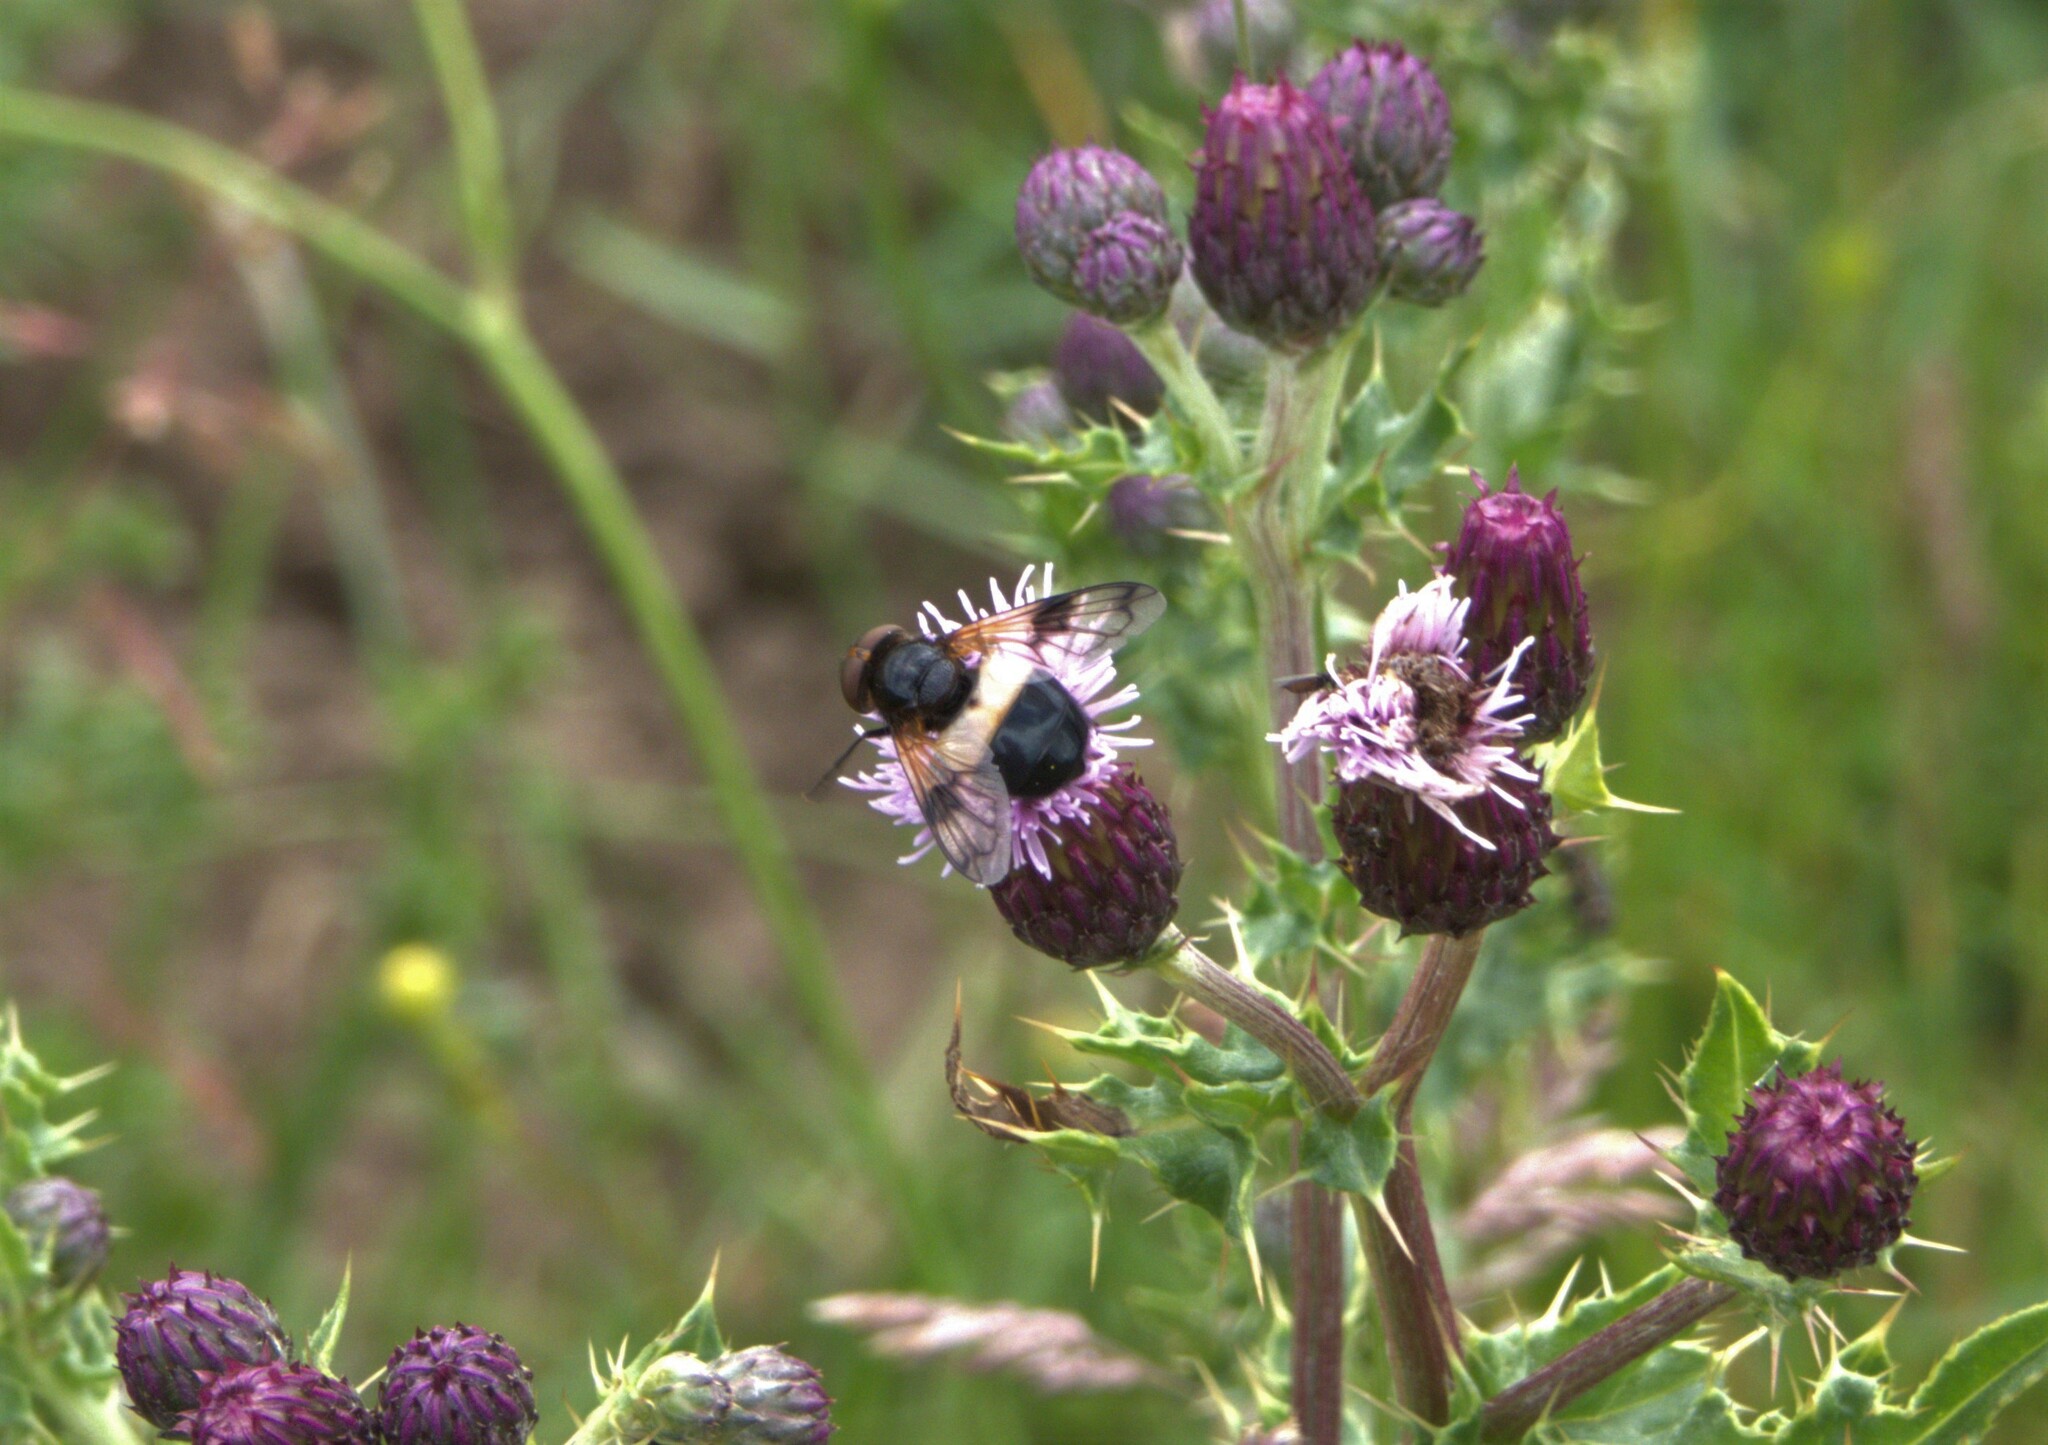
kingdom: Animalia
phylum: Arthropoda
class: Insecta
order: Diptera
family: Syrphidae
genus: Volucella
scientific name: Volucella pellucens
